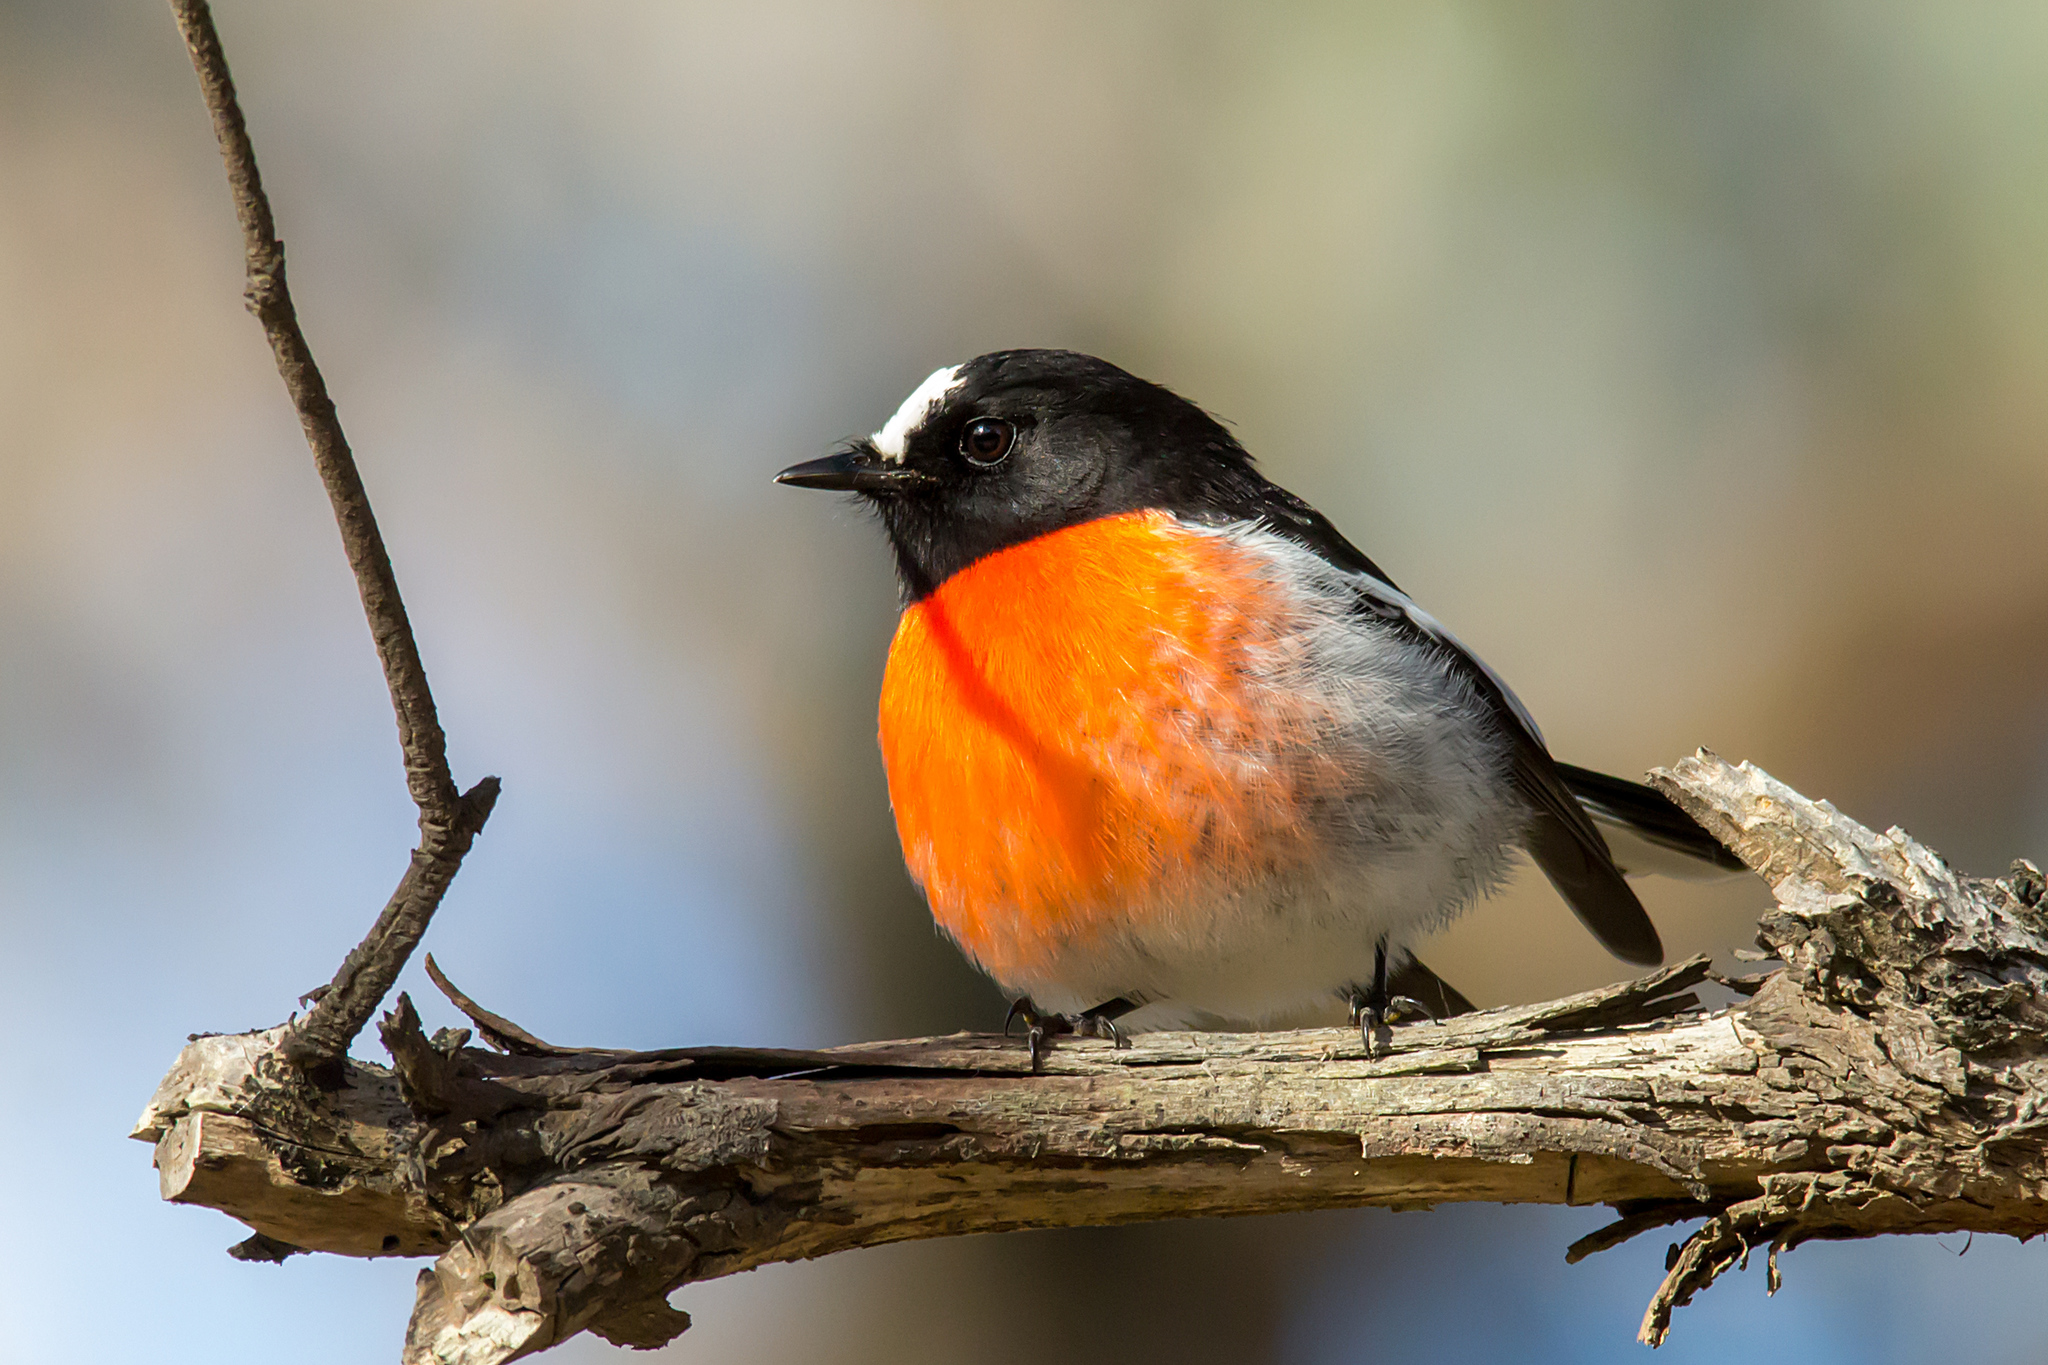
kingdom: Animalia
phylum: Chordata
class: Aves
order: Passeriformes
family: Petroicidae
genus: Petroica
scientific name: Petroica boodang
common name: Scarlet robin
